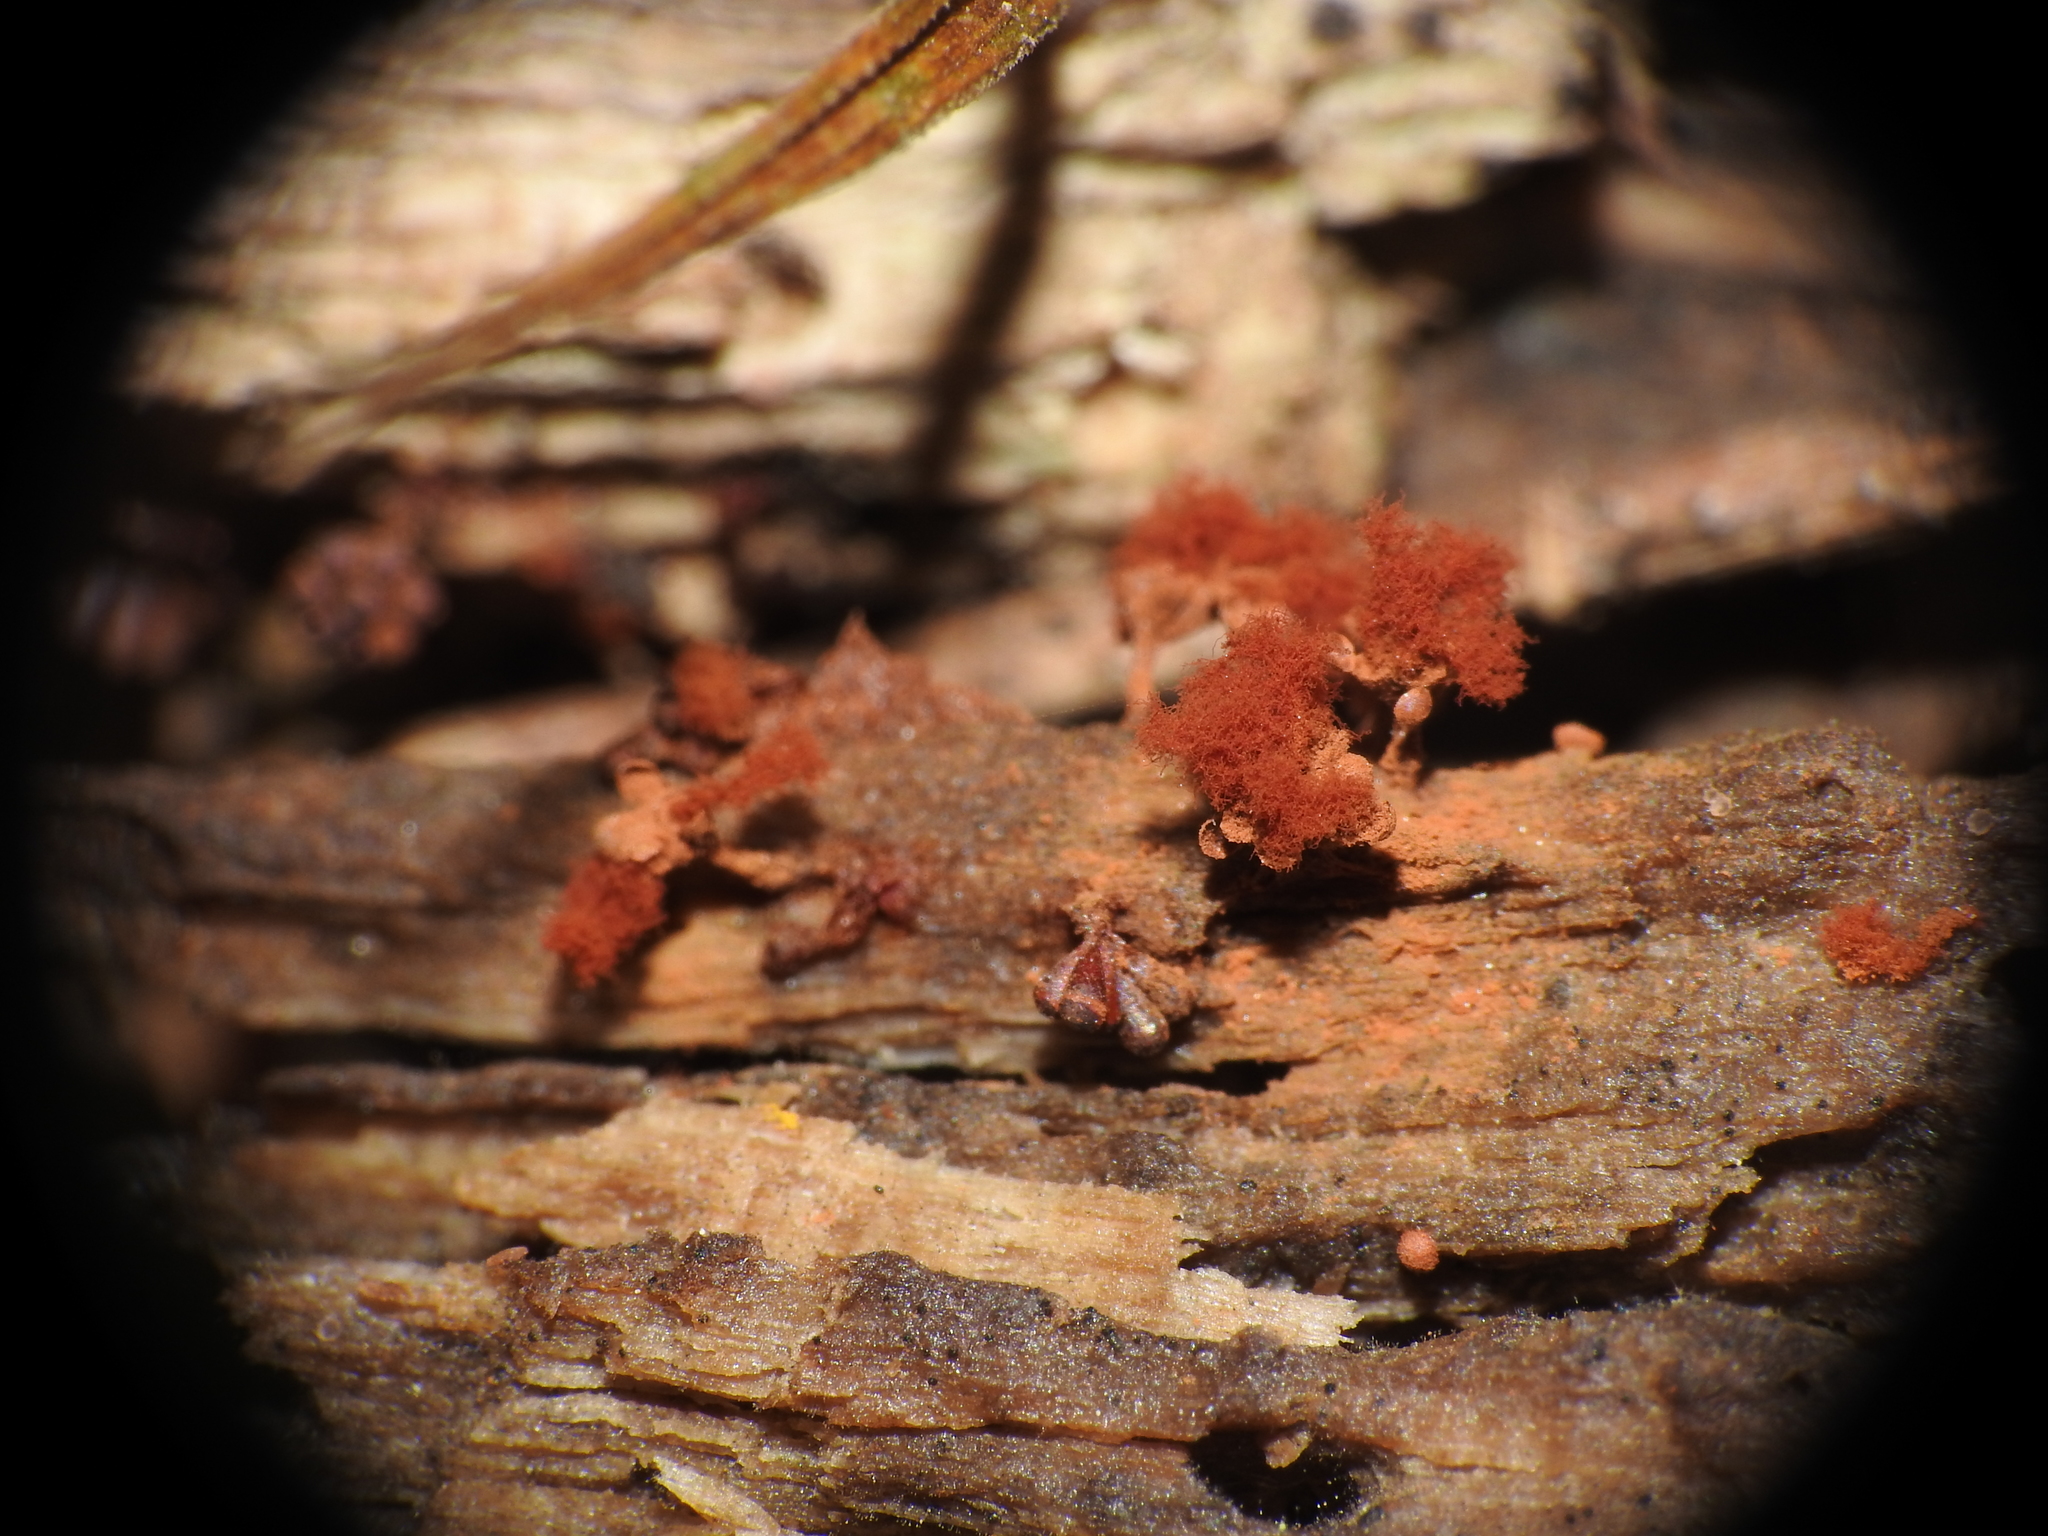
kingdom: Protozoa
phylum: Mycetozoa
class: Myxomycetes
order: Trichiales
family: Trichiaceae
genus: Metatrichia
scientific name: Metatrichia vesparia
